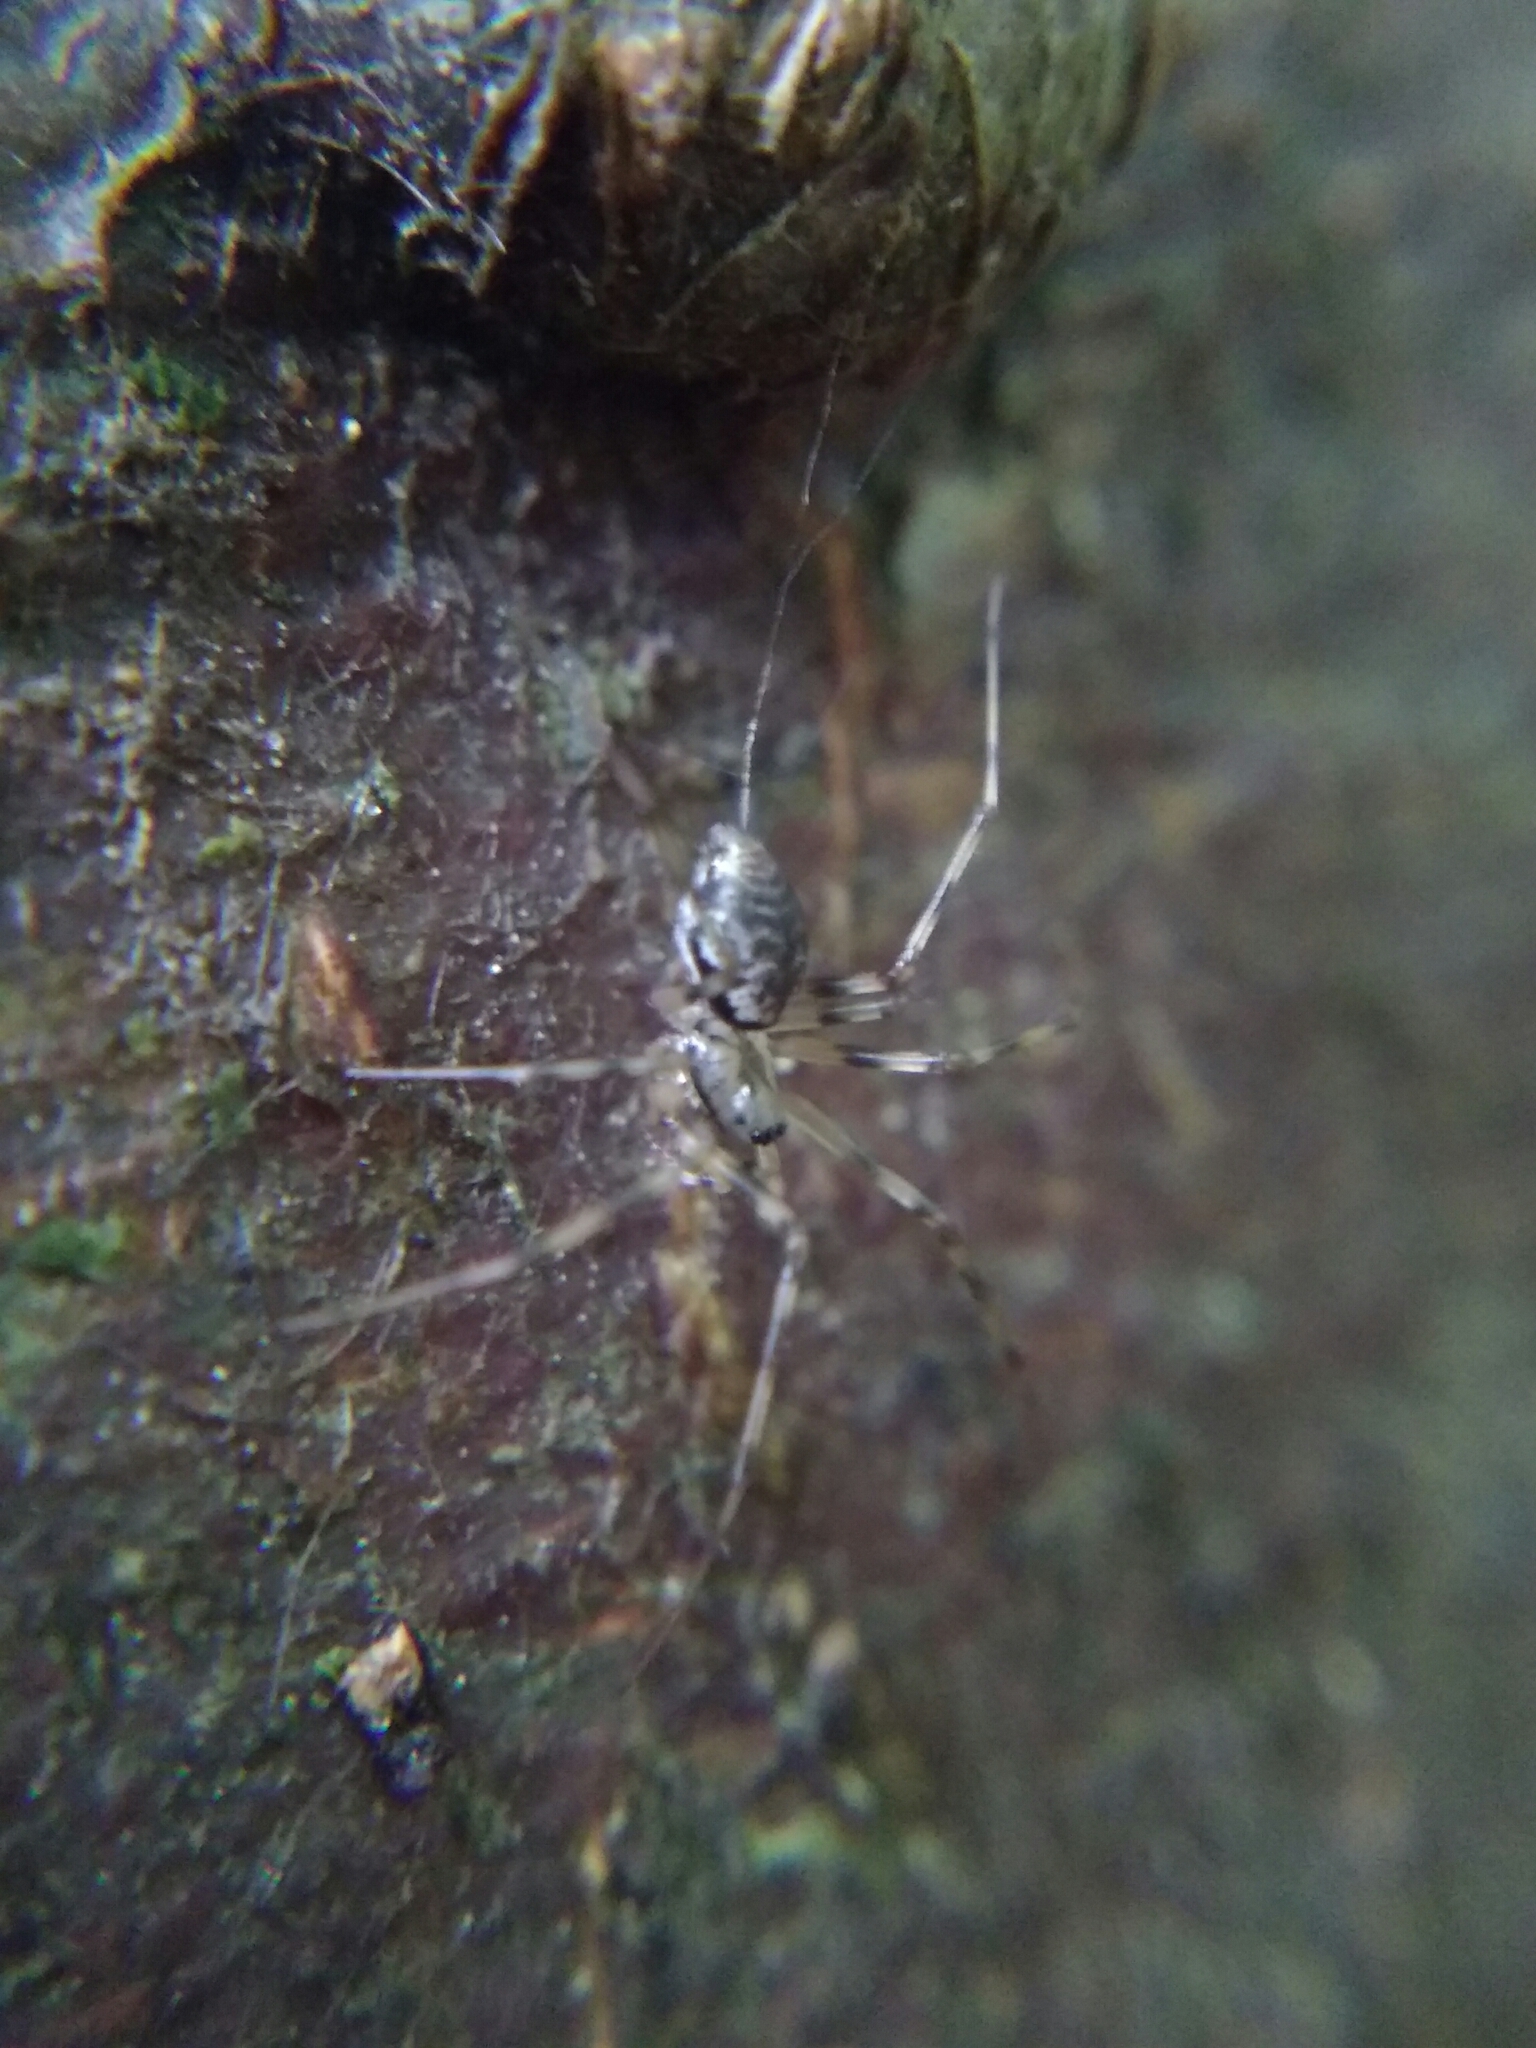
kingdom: Animalia
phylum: Arthropoda
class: Arachnida
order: Araneae
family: Linyphiidae
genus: Drapetisca
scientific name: Drapetisca socialis
